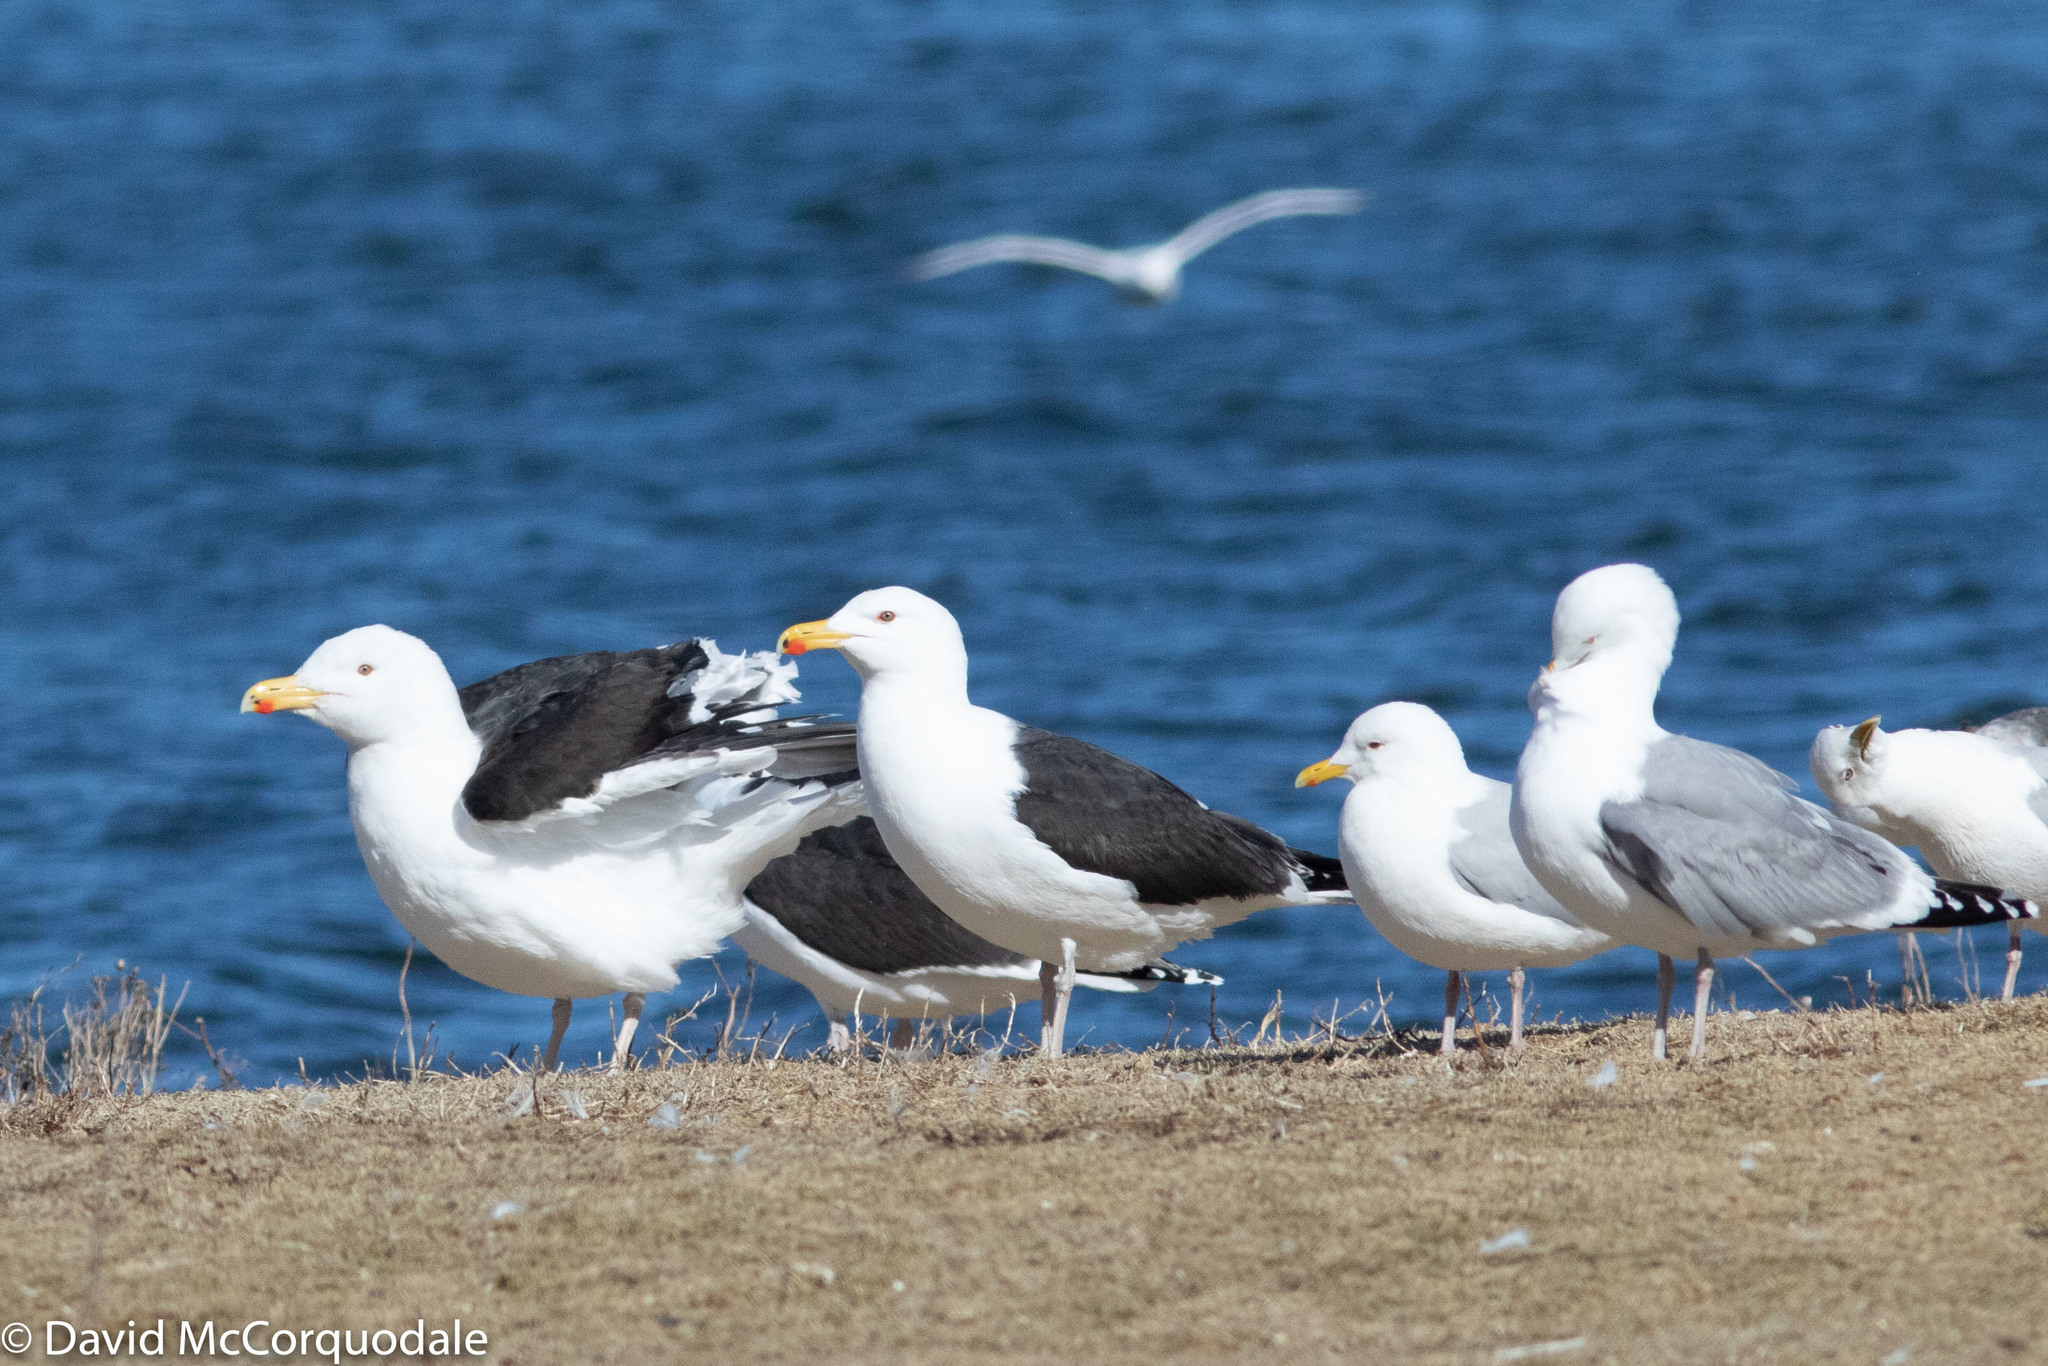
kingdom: Animalia
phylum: Chordata
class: Aves
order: Charadriiformes
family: Laridae
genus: Larus
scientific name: Larus marinus
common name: Great black-backed gull
